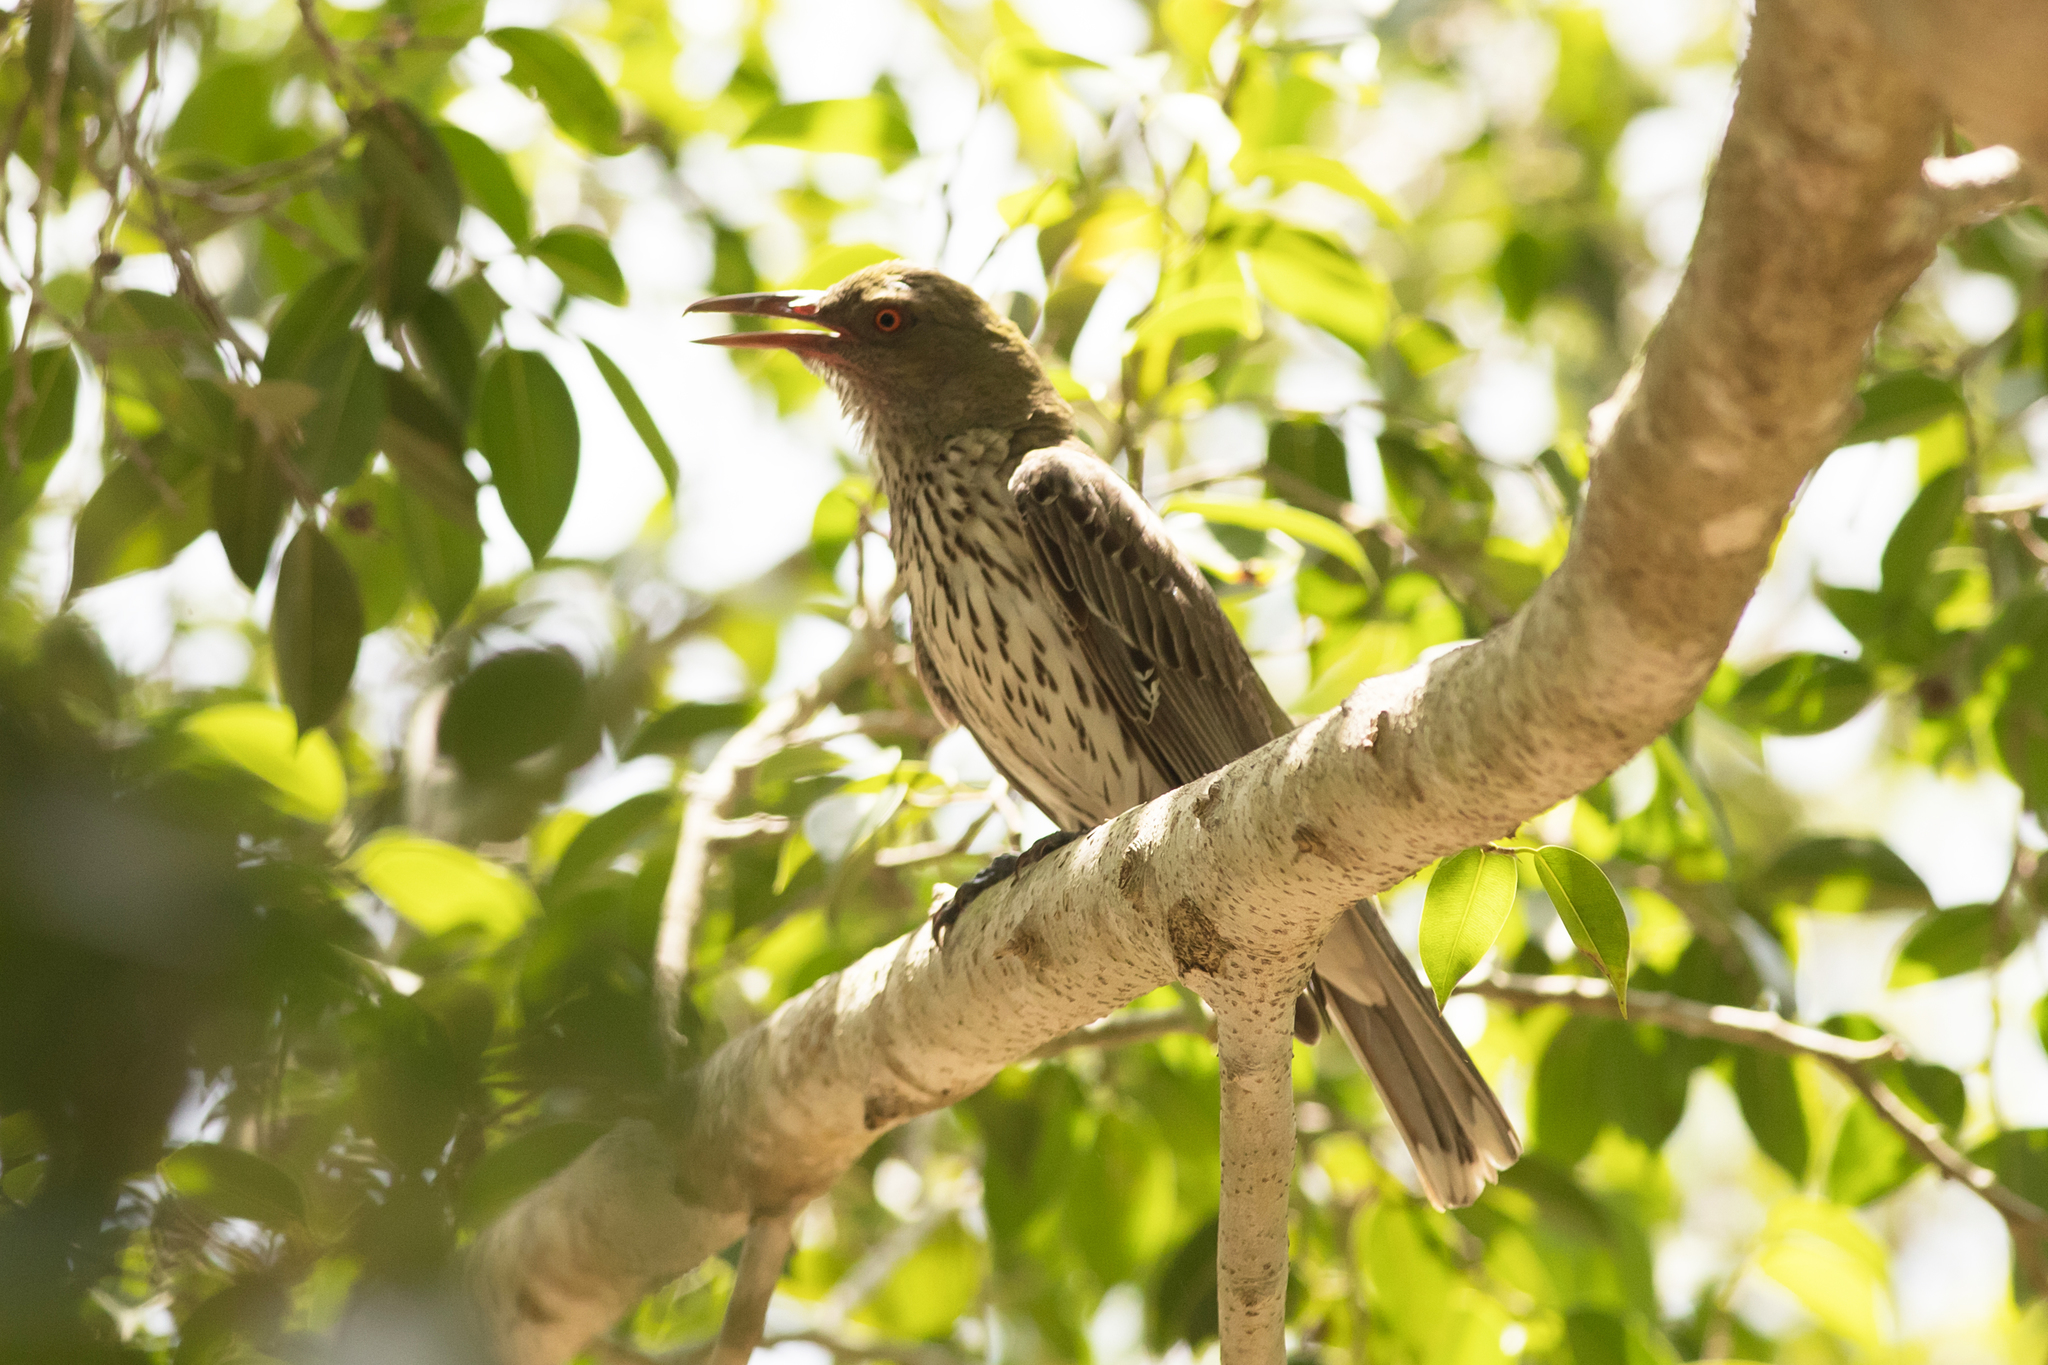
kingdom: Animalia
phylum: Chordata
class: Aves
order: Passeriformes
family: Oriolidae
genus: Oriolus
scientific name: Oriolus sagittatus
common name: Olive-backed oriole
